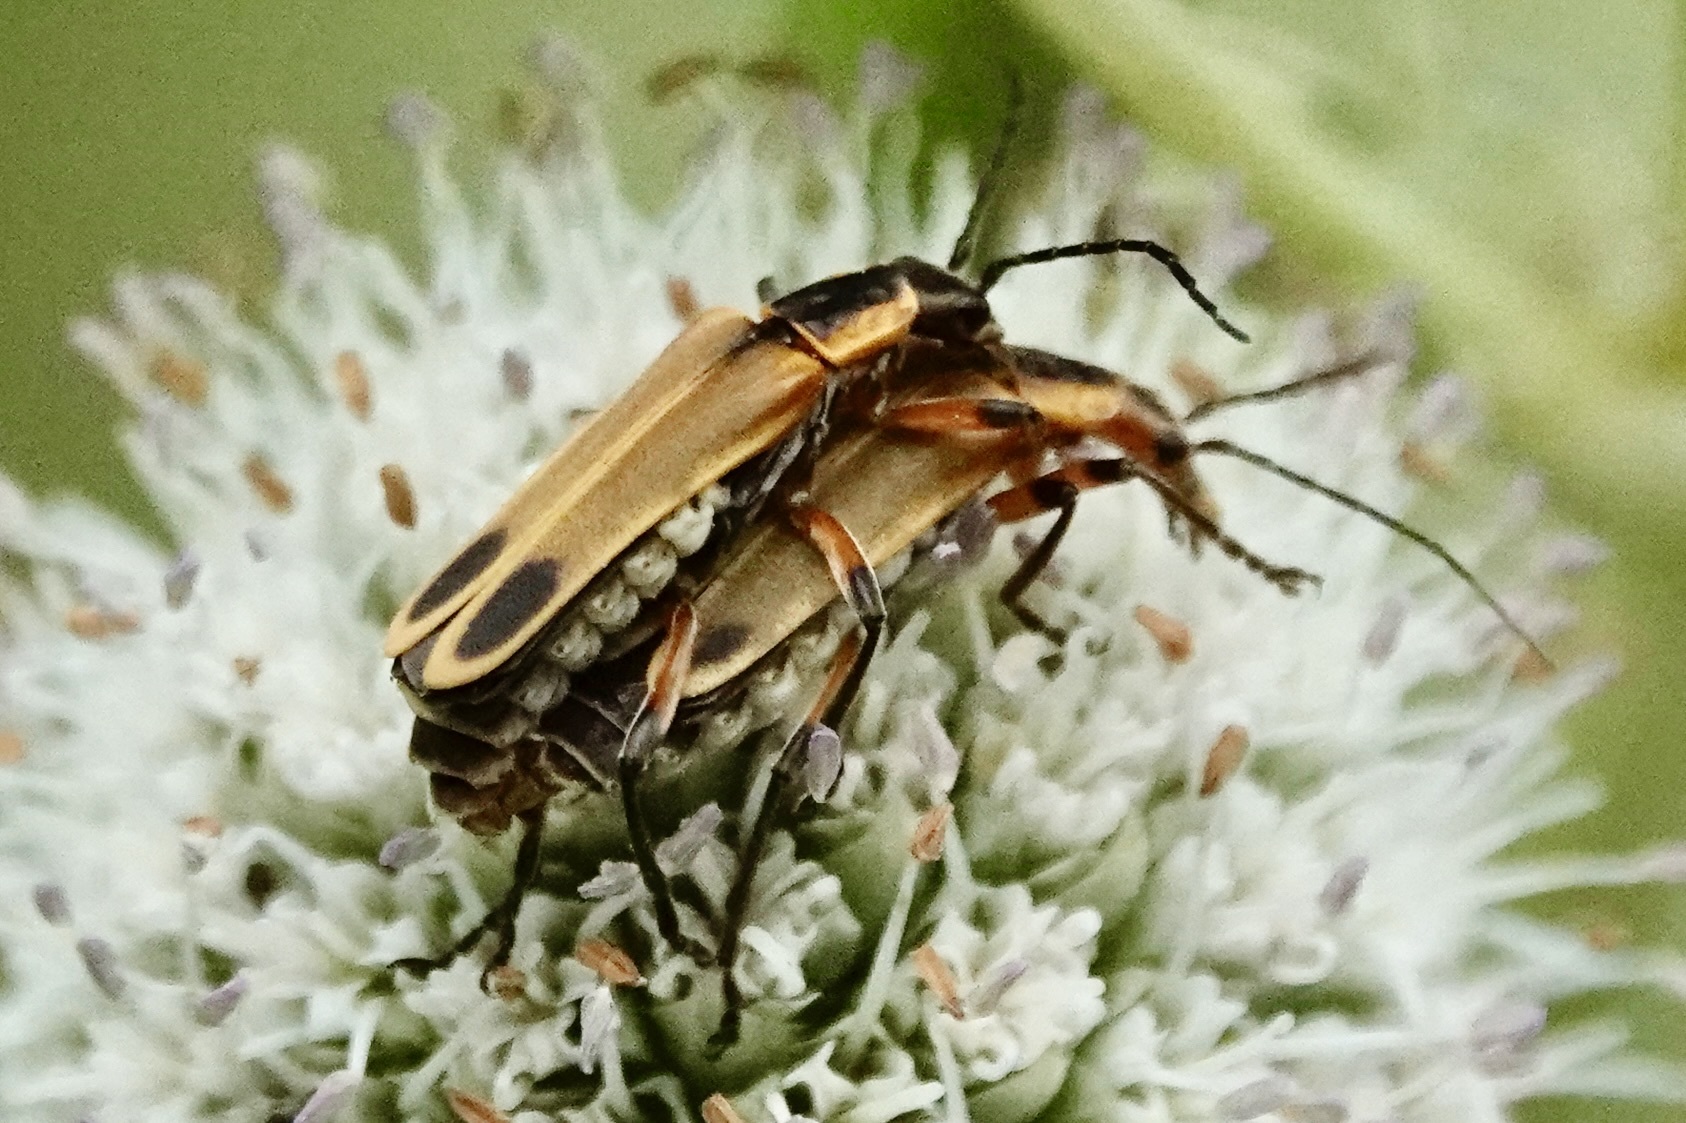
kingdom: Animalia
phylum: Arthropoda
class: Insecta
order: Coleoptera
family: Cantharidae
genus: Chauliognathus
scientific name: Chauliognathus marginatus
